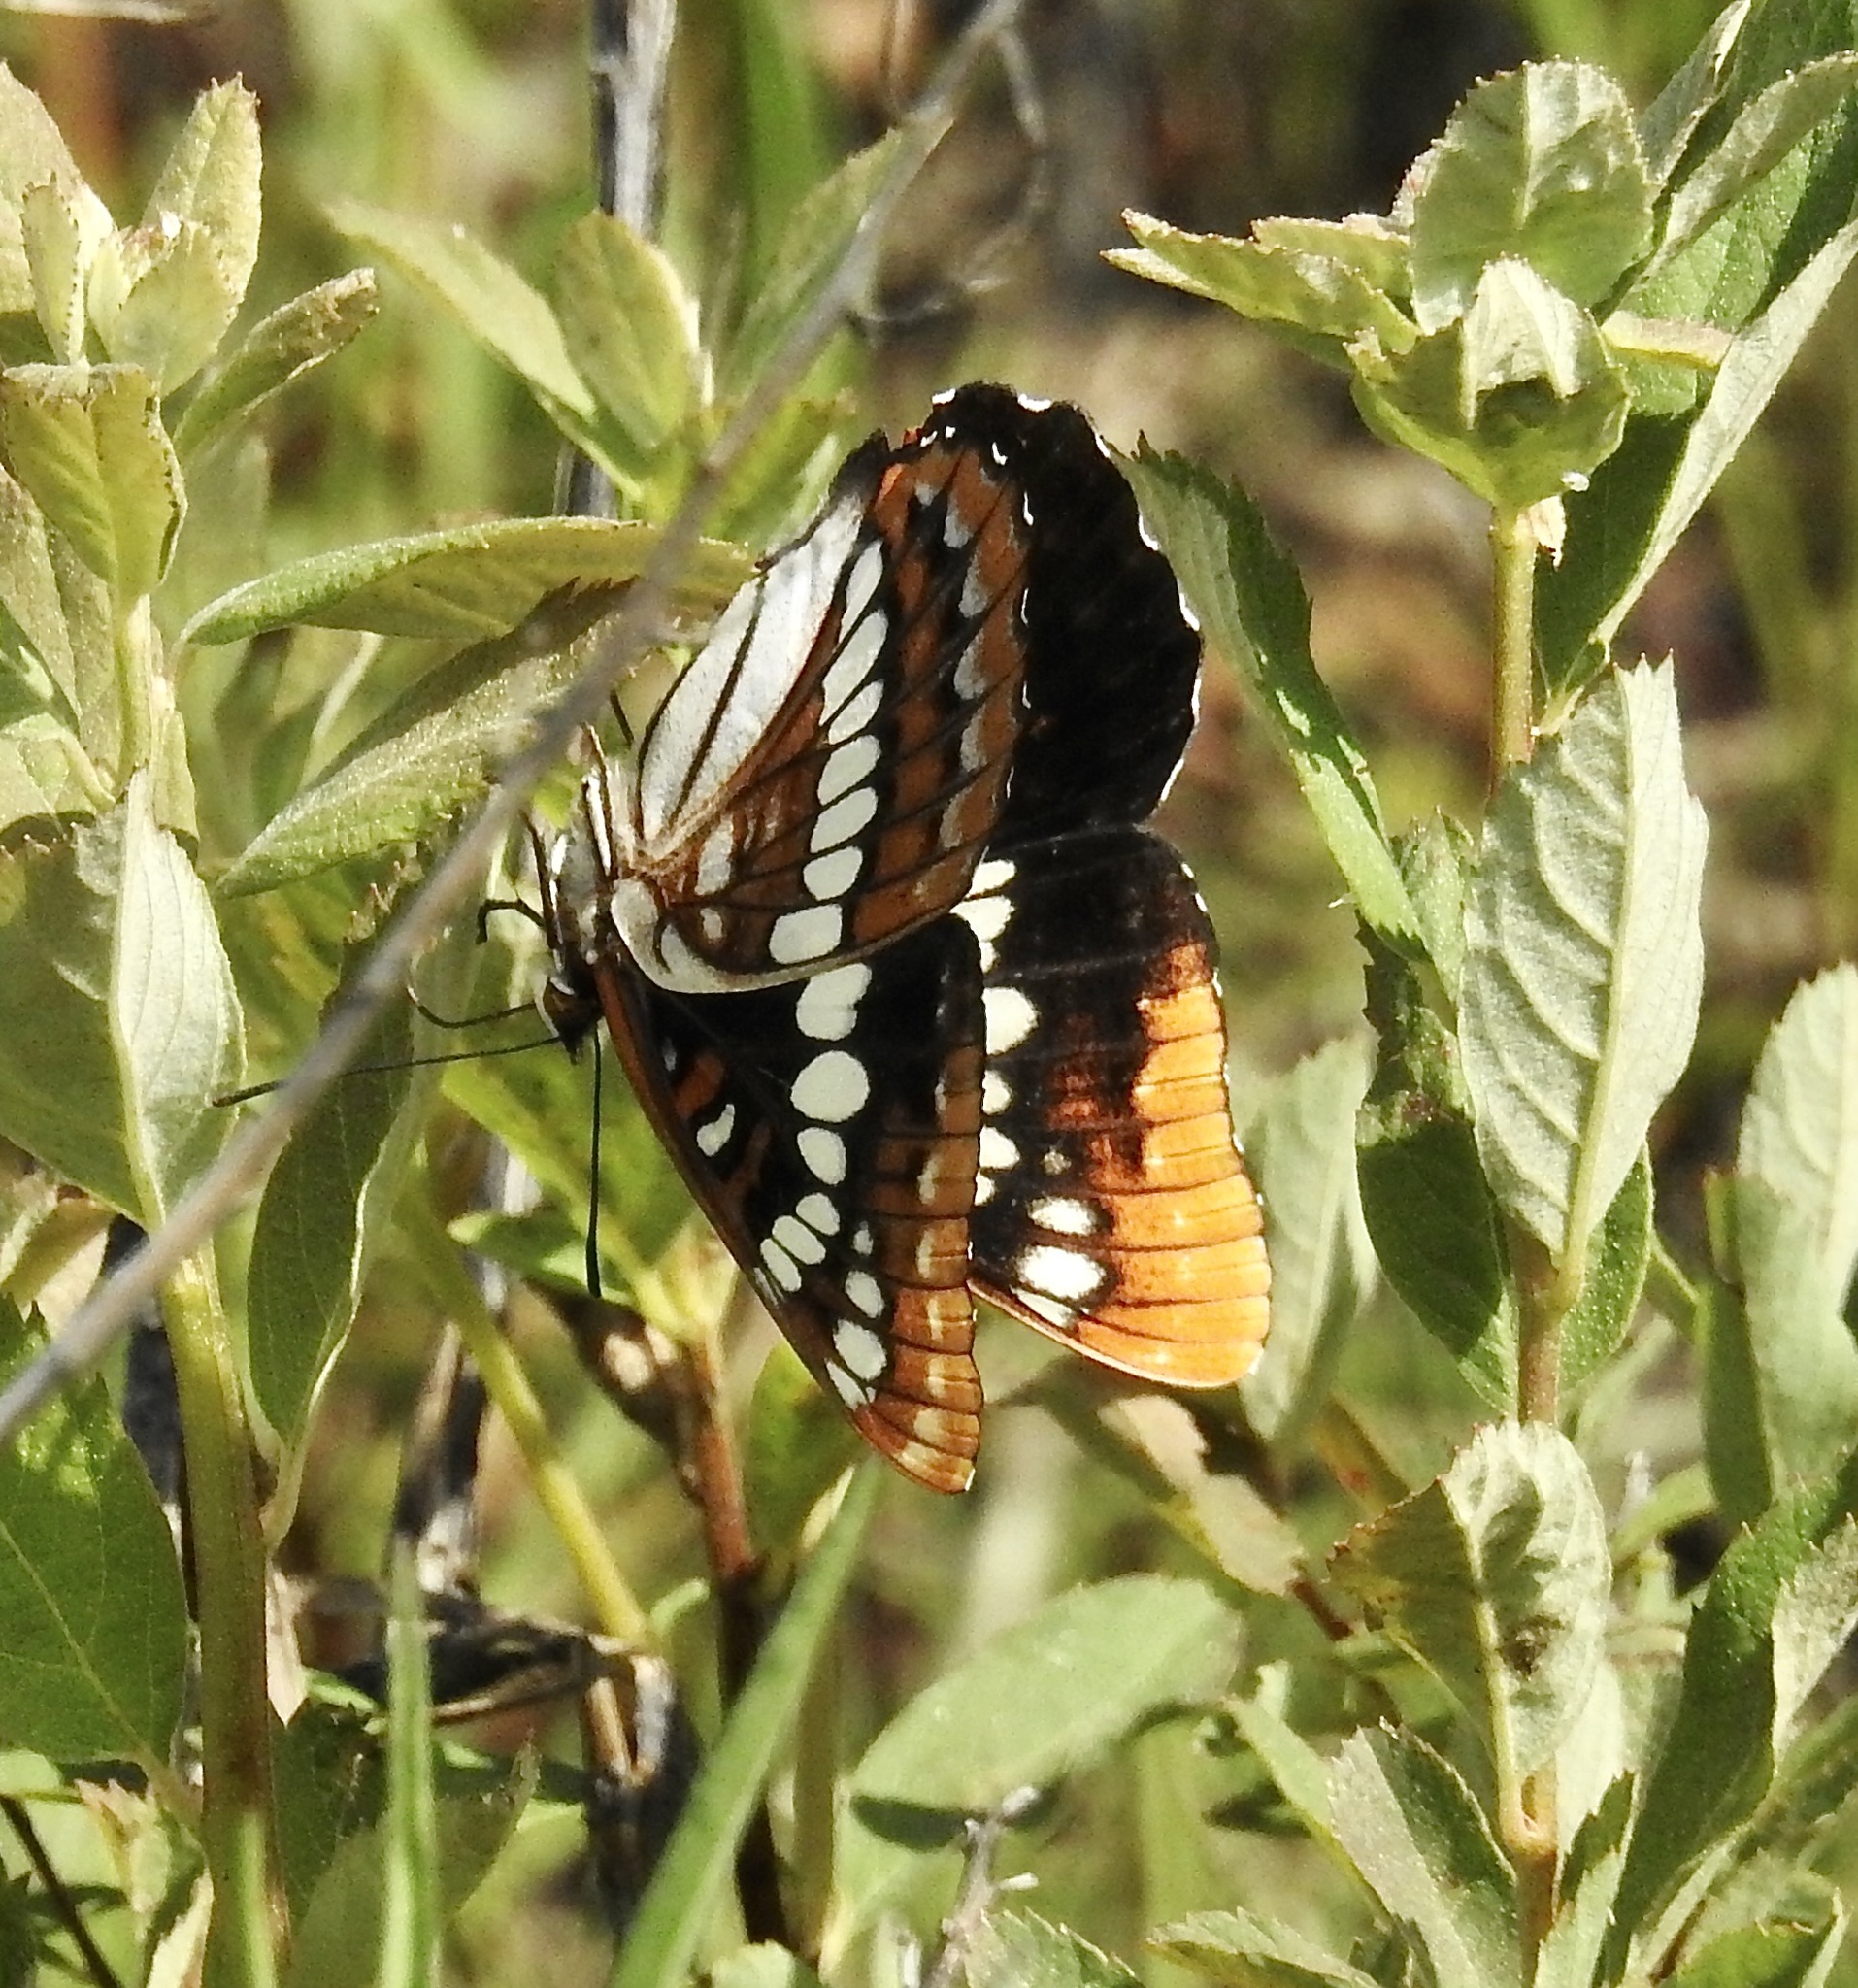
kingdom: Animalia
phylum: Arthropoda
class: Insecta
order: Lepidoptera
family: Nymphalidae
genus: Limenitis
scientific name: Limenitis lorquini
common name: Lorquin's admiral
